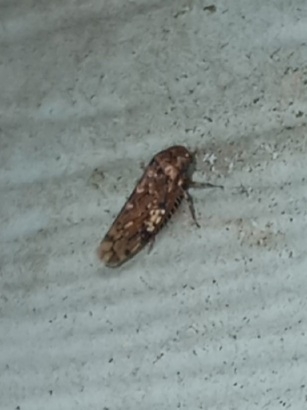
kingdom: Animalia
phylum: Arthropoda
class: Insecta
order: Hemiptera
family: Cicadellidae
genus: Xestocephalus
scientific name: Xestocephalus tessellatus
